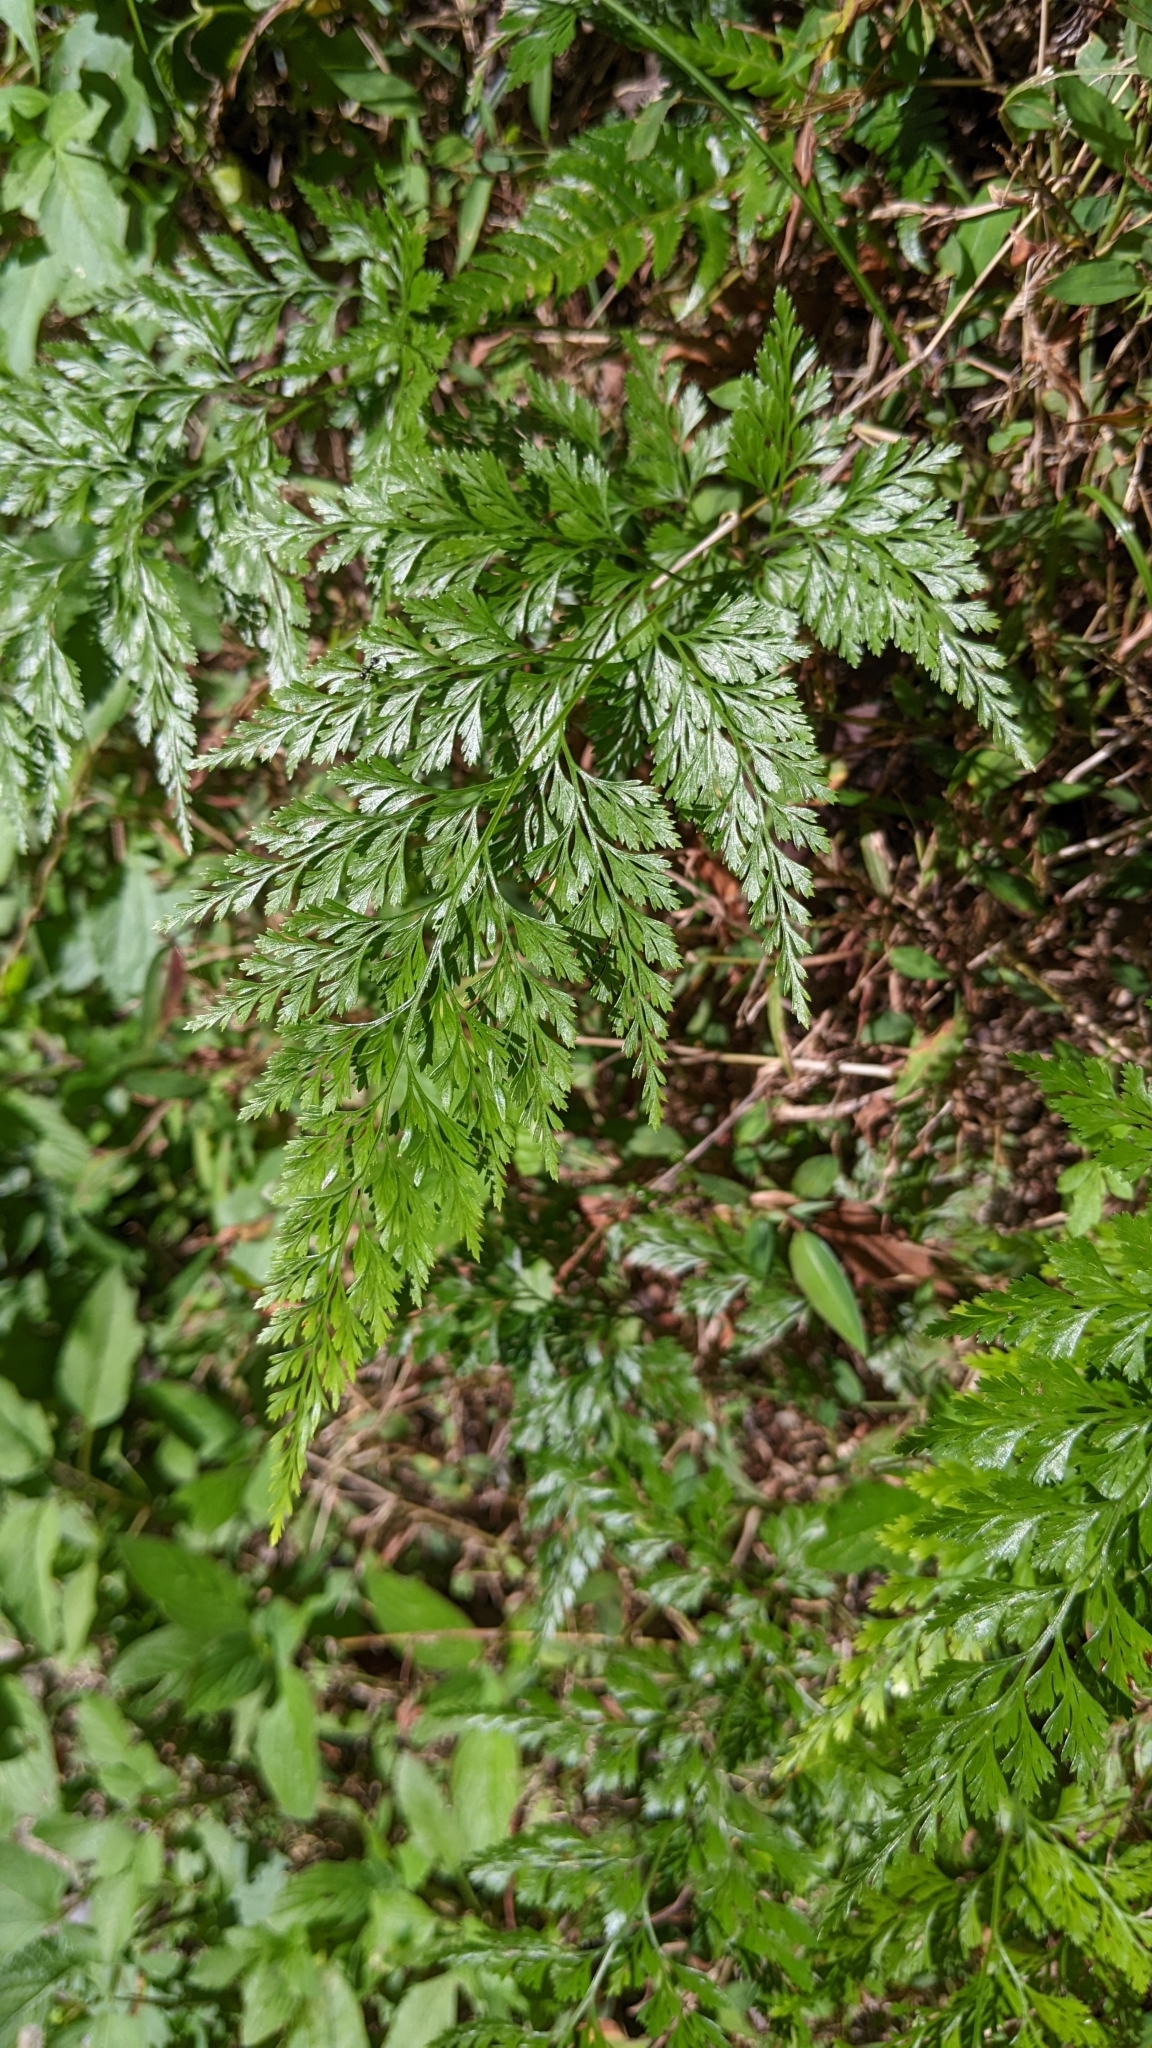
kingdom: Plantae
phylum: Tracheophyta
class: Polypodiopsida
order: Polypodiales
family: Pteridaceae
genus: Onychium
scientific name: Onychium japonicum
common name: Carrot fern
